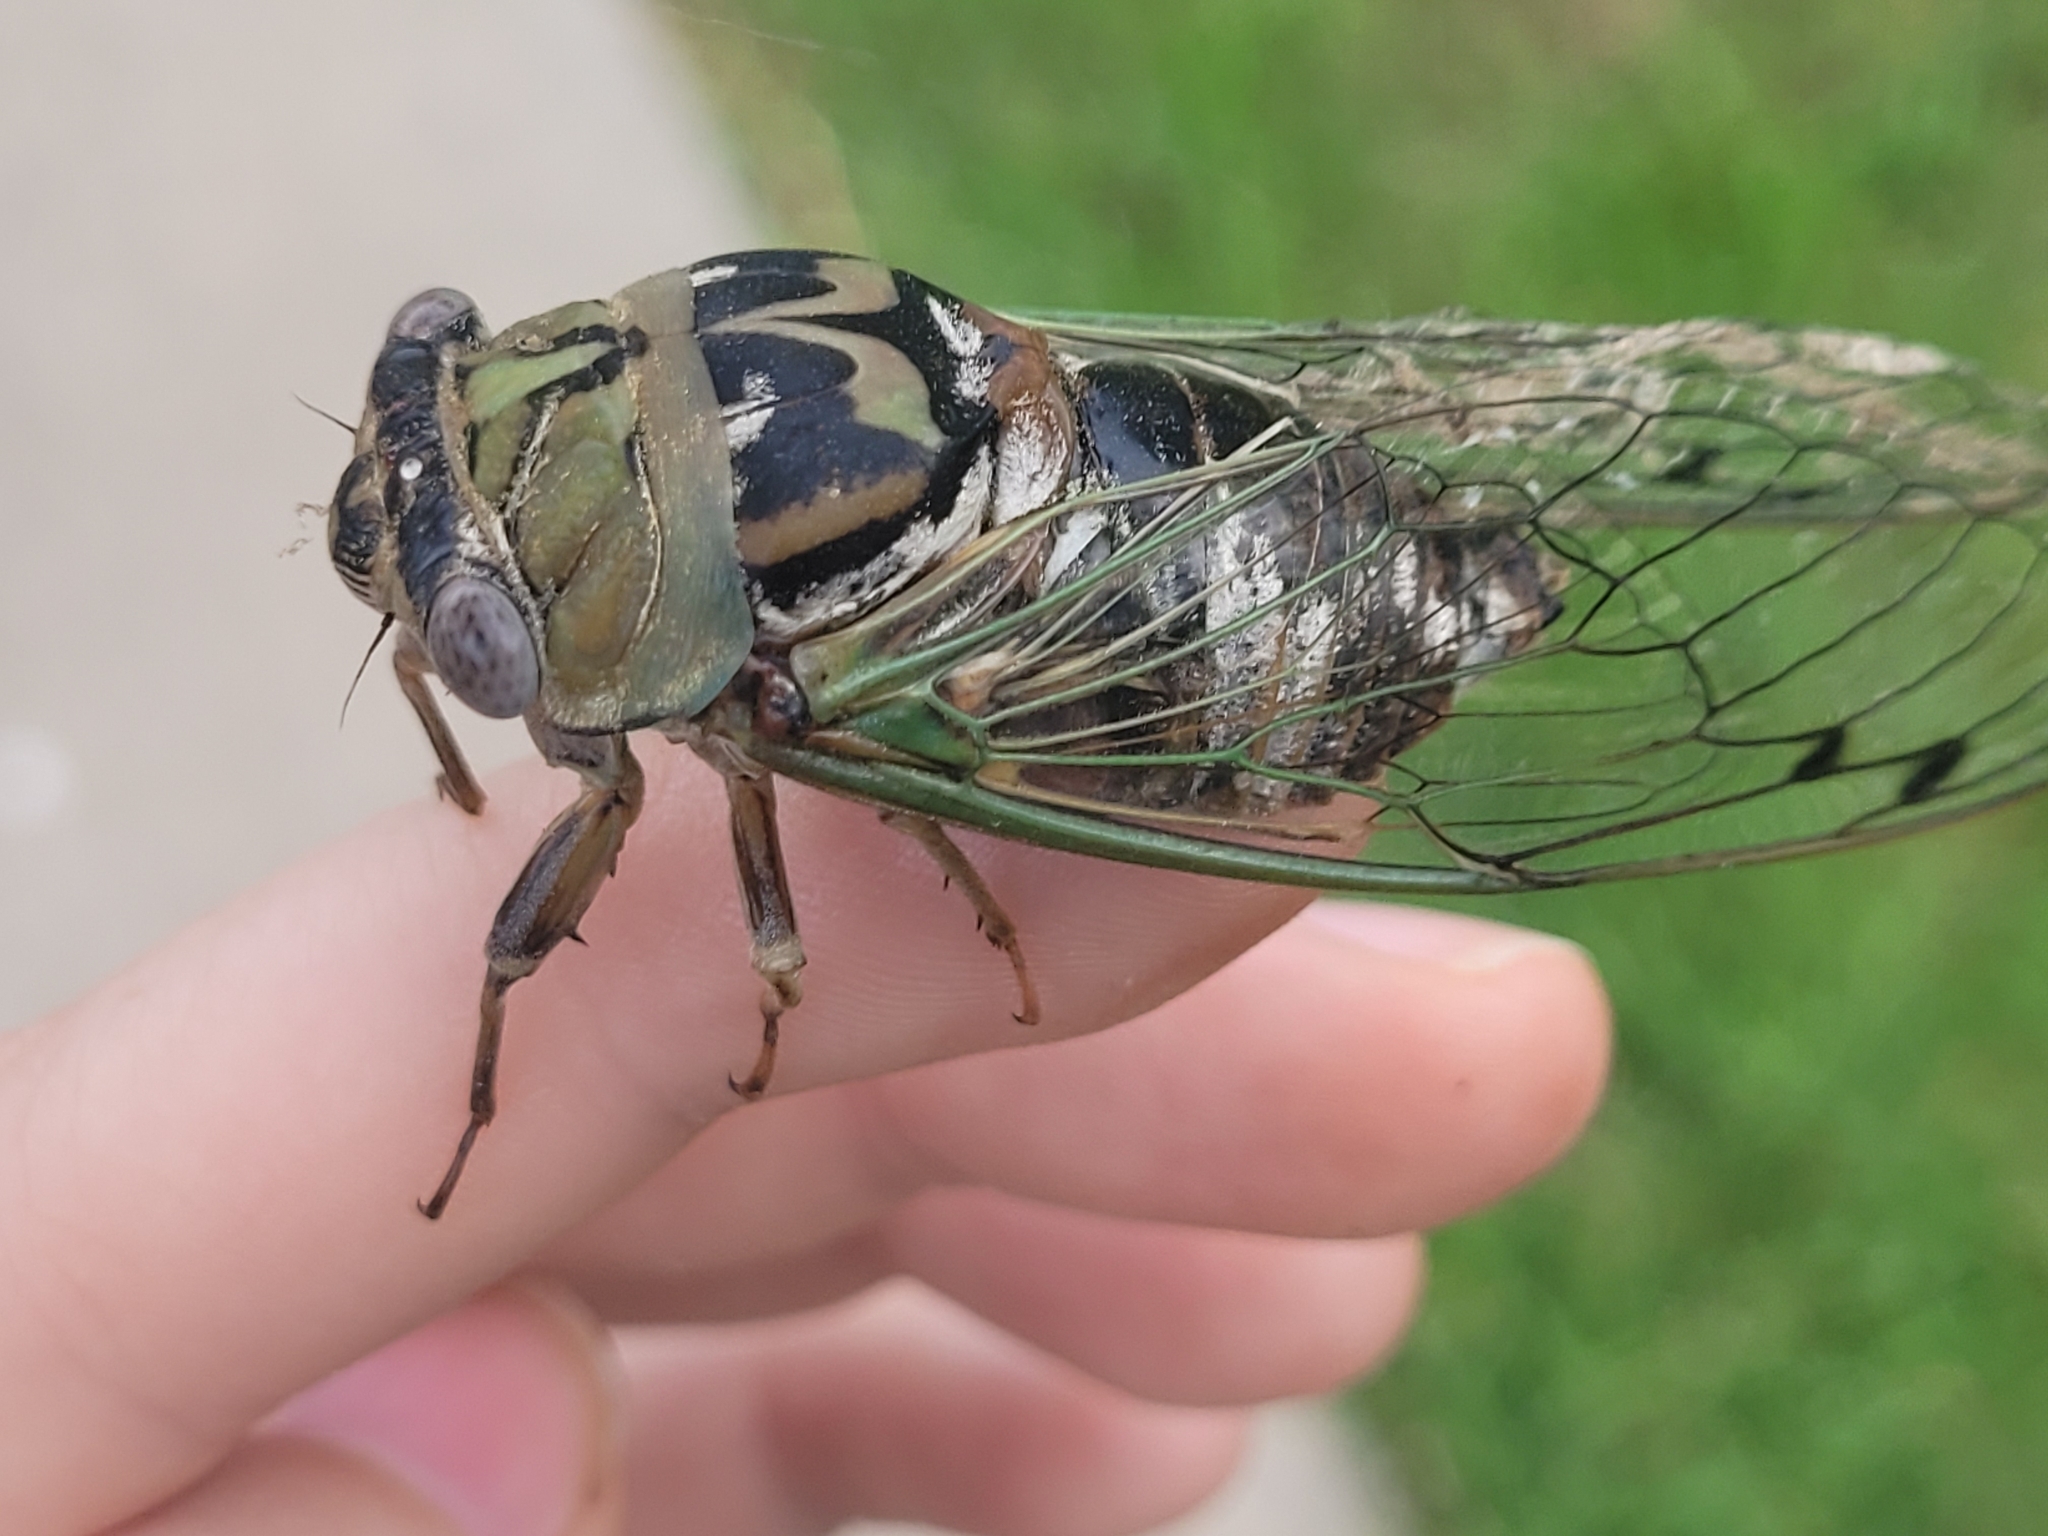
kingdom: Animalia
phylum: Arthropoda
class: Insecta
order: Hemiptera
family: Cicadidae
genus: Megatibicen
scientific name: Megatibicen resh
